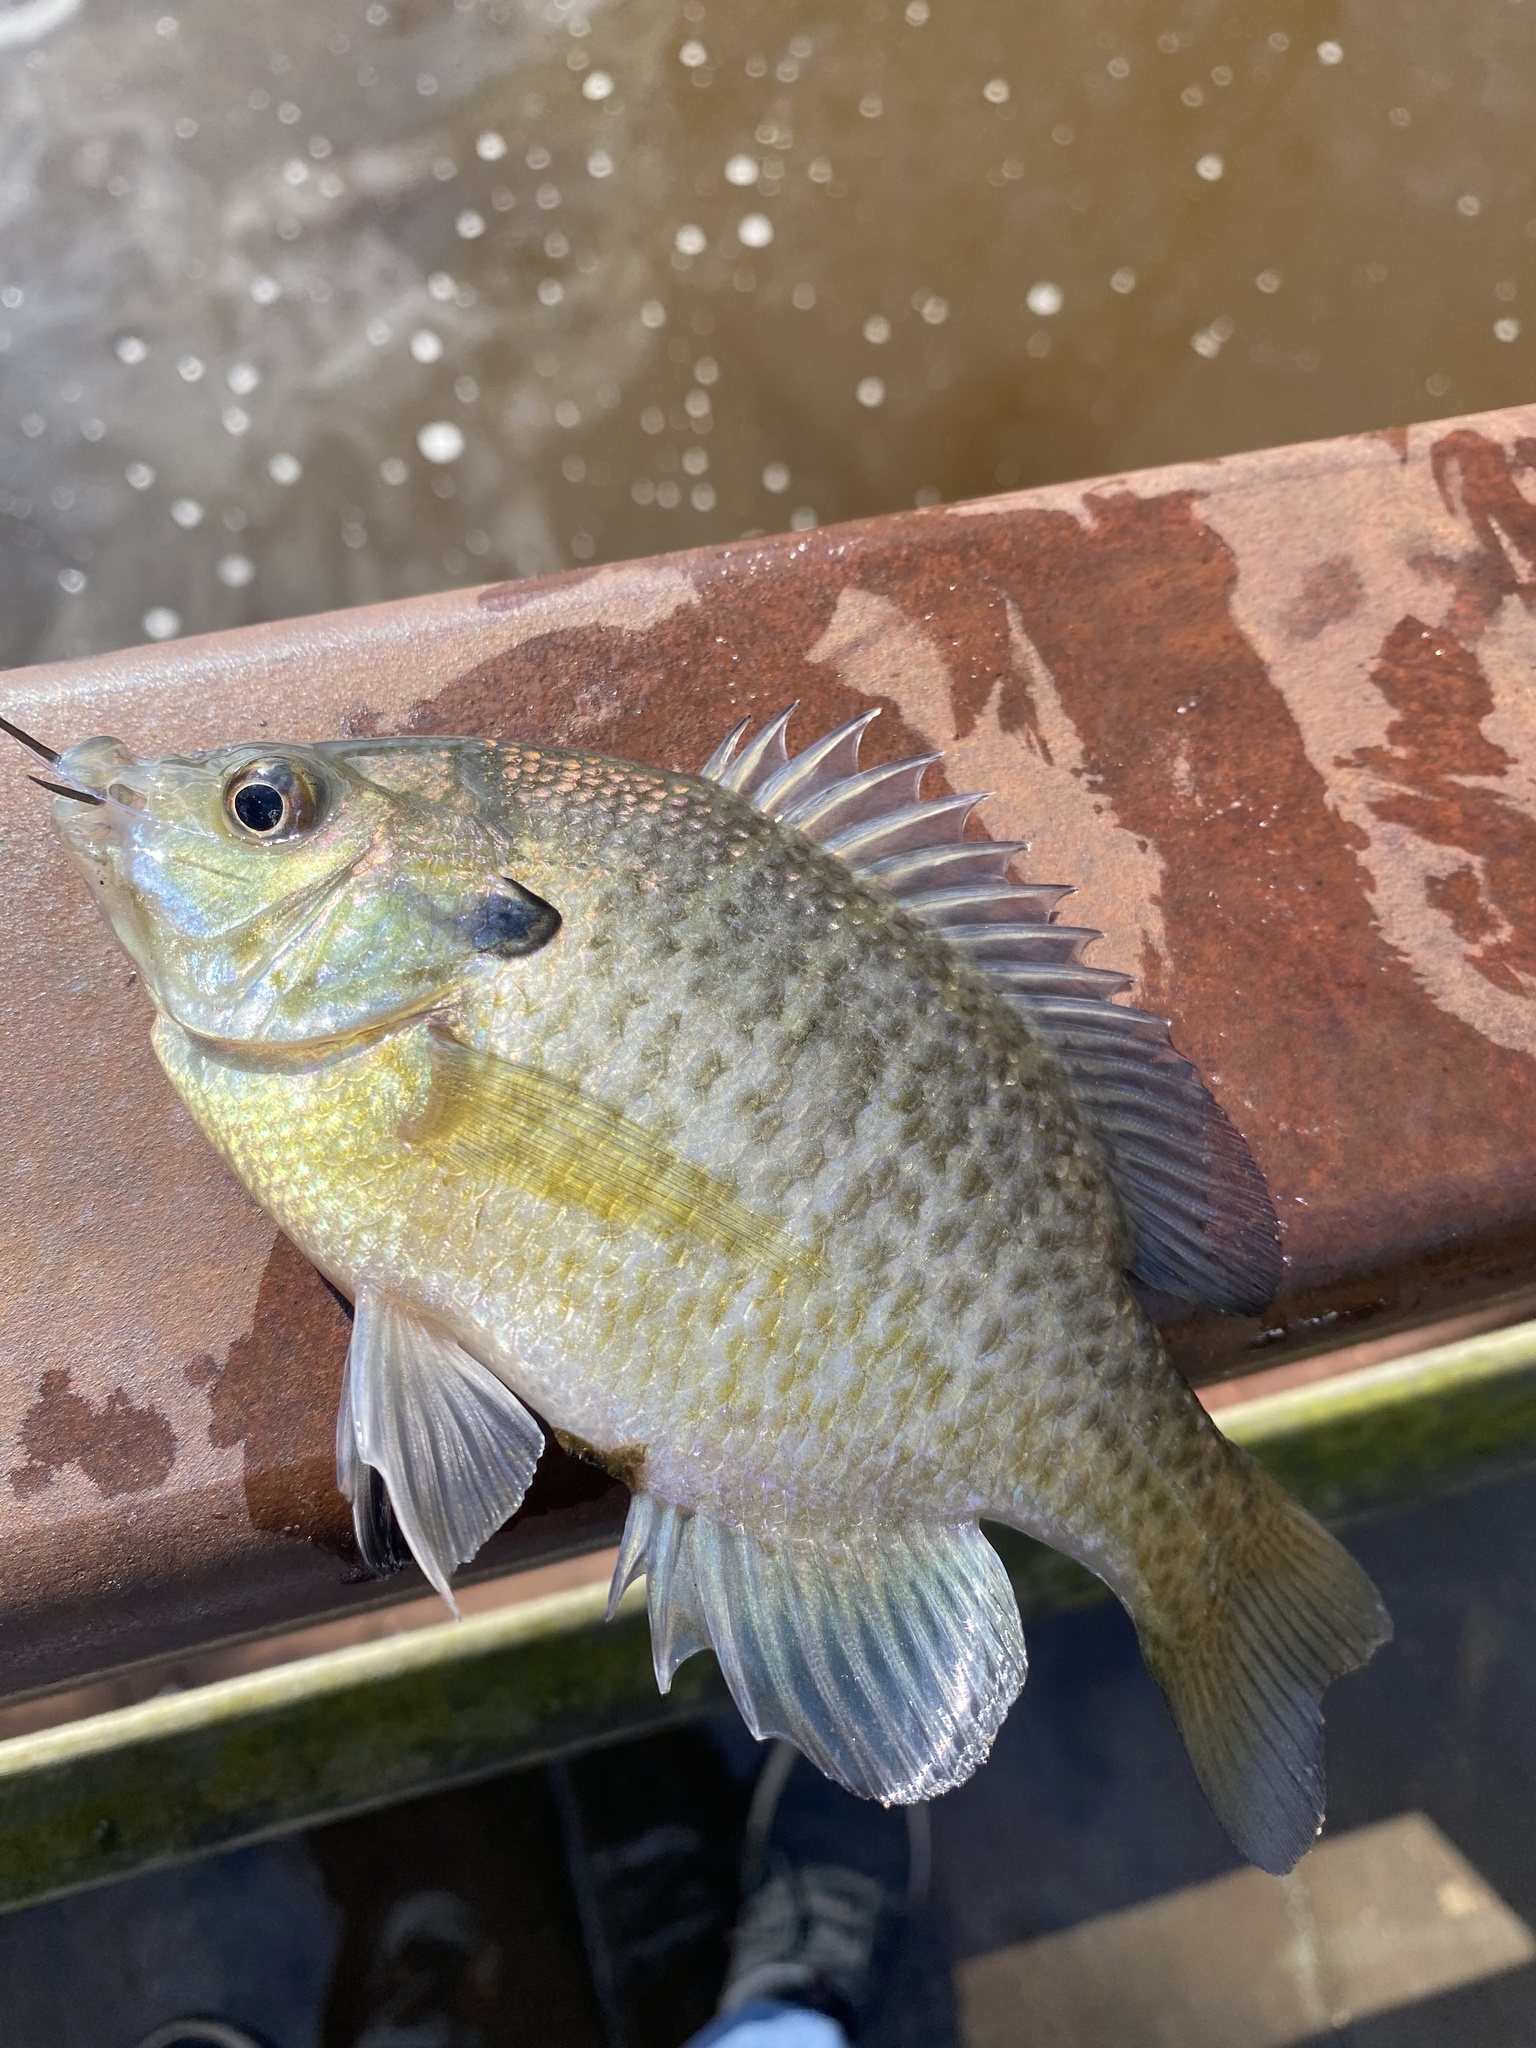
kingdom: Animalia
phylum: Chordata
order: Perciformes
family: Centrarchidae
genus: Lepomis
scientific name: Lepomis macrochirus
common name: Bluegill
